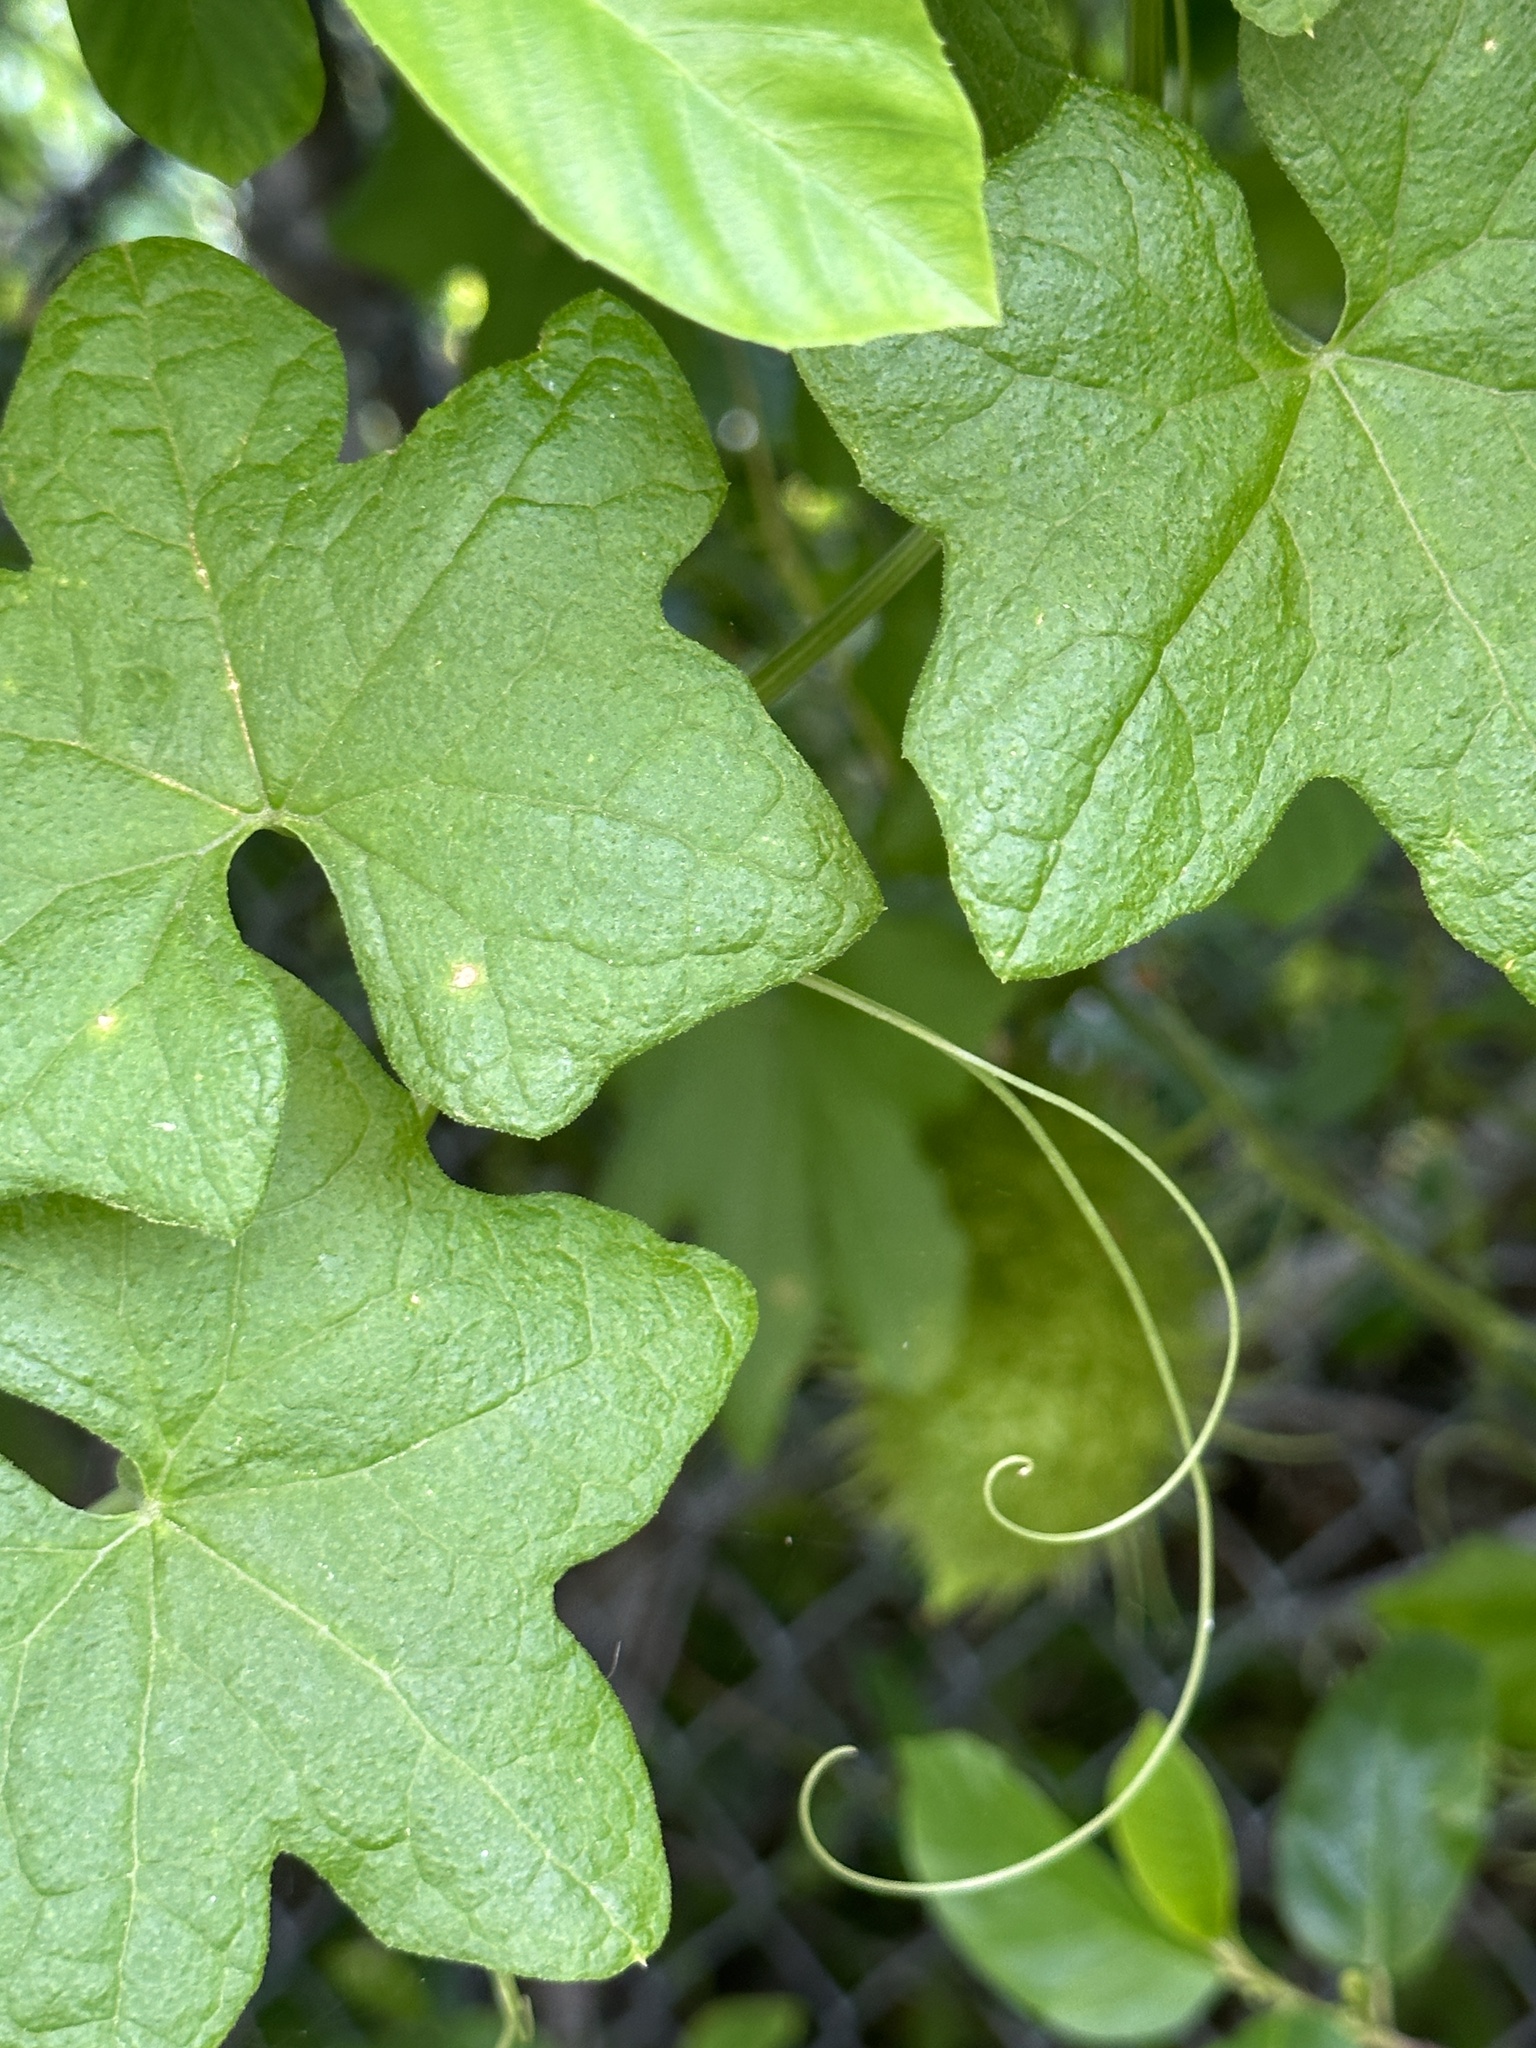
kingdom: Plantae
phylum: Tracheophyta
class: Magnoliopsida
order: Cucurbitales
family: Cucurbitaceae
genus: Marah
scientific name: Marah macrocarpa
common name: Cucamonga manroot
